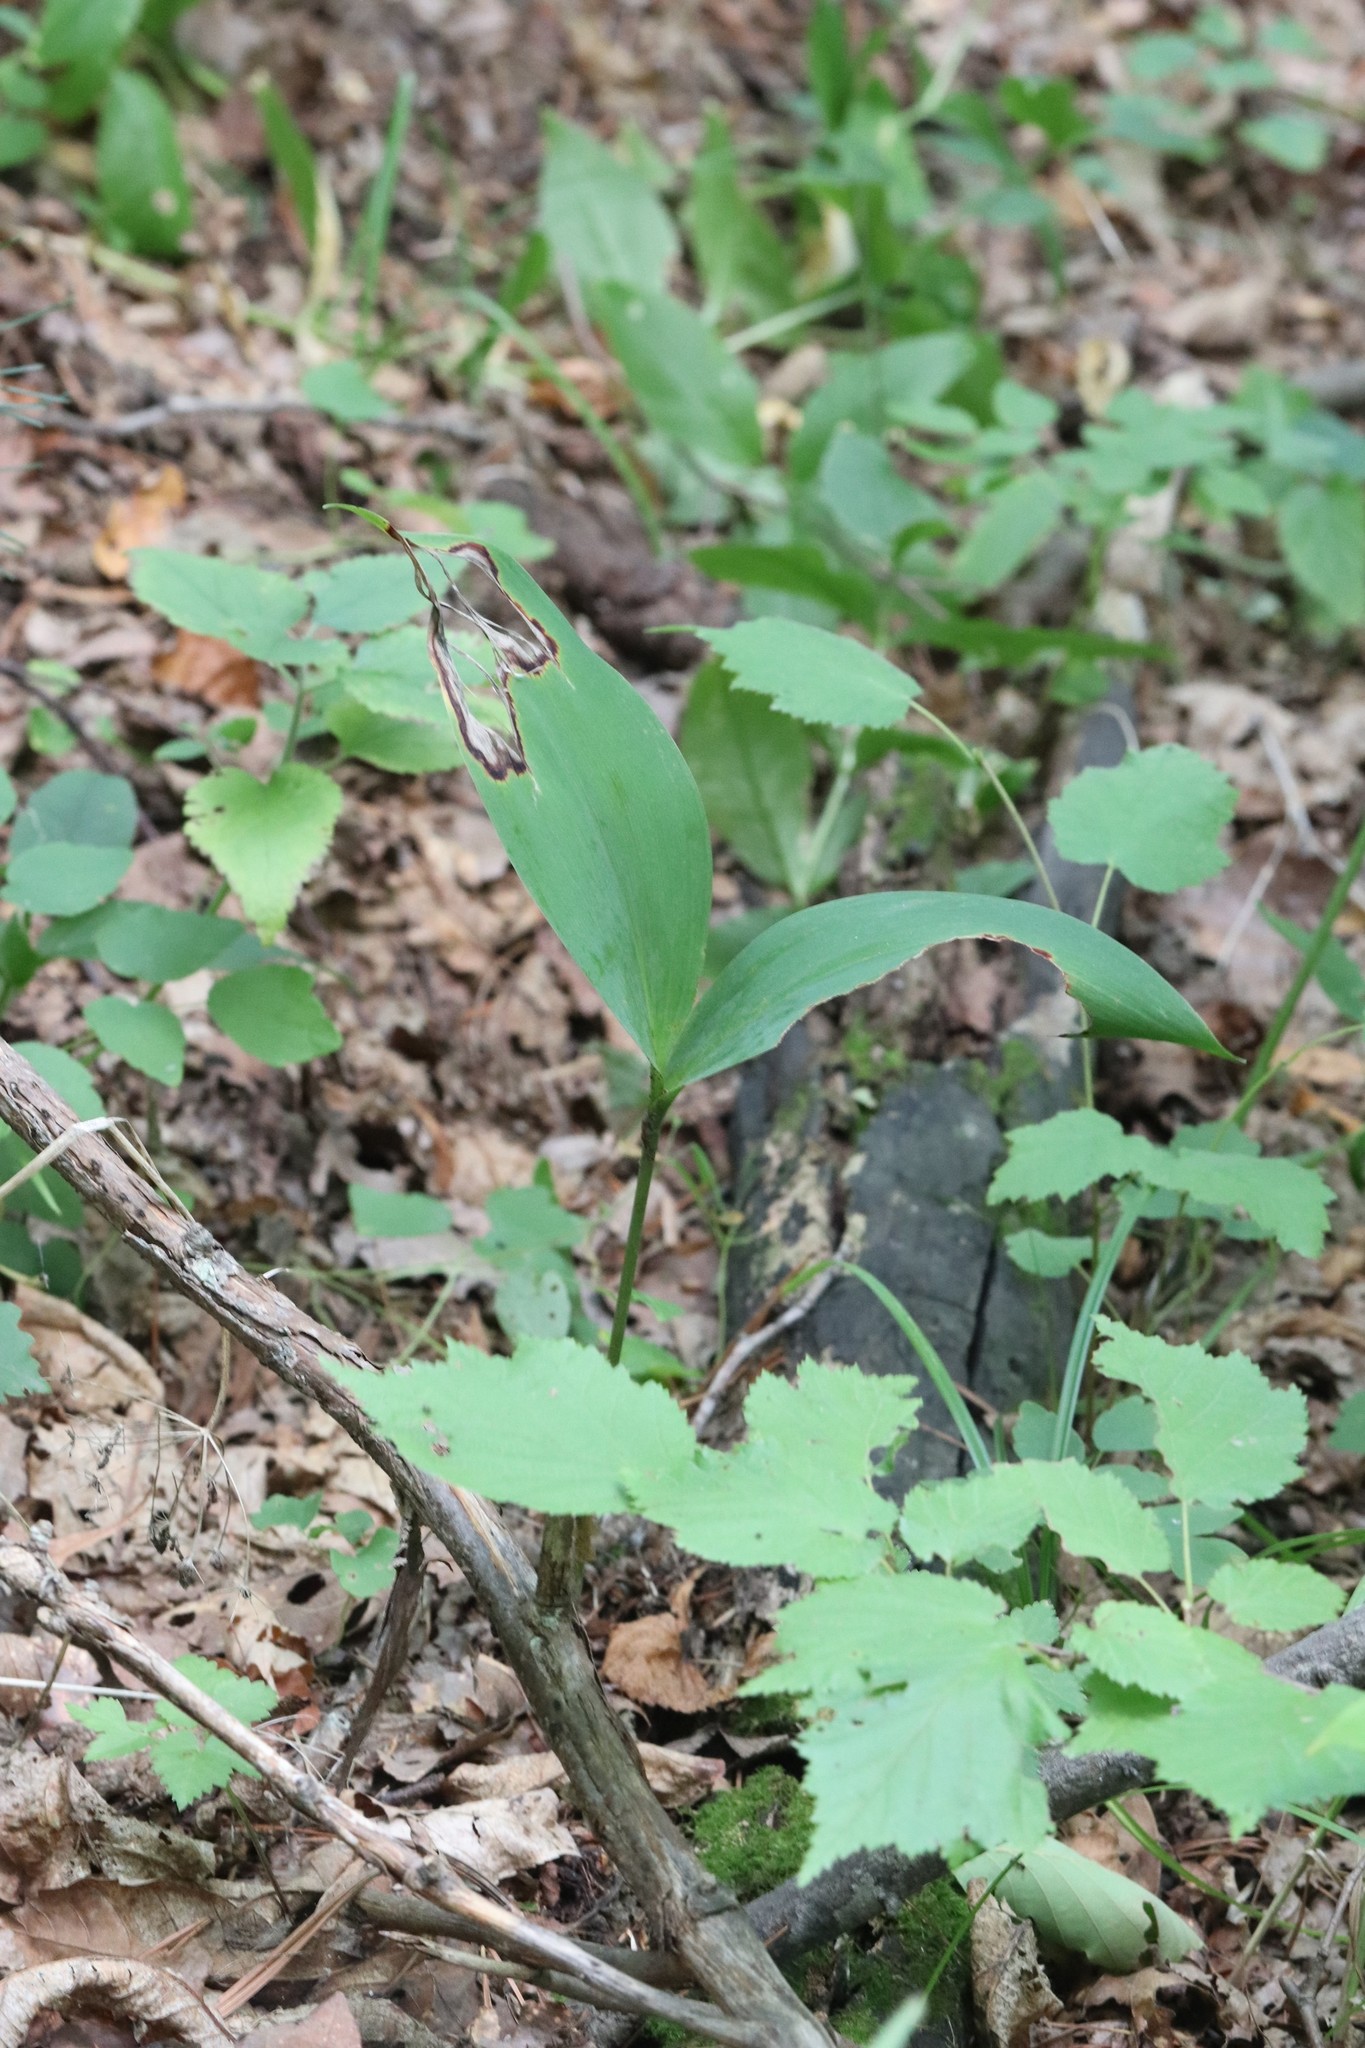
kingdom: Plantae
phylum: Tracheophyta
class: Liliopsida
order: Asparagales
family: Asparagaceae
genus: Convallaria
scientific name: Convallaria keiskei
